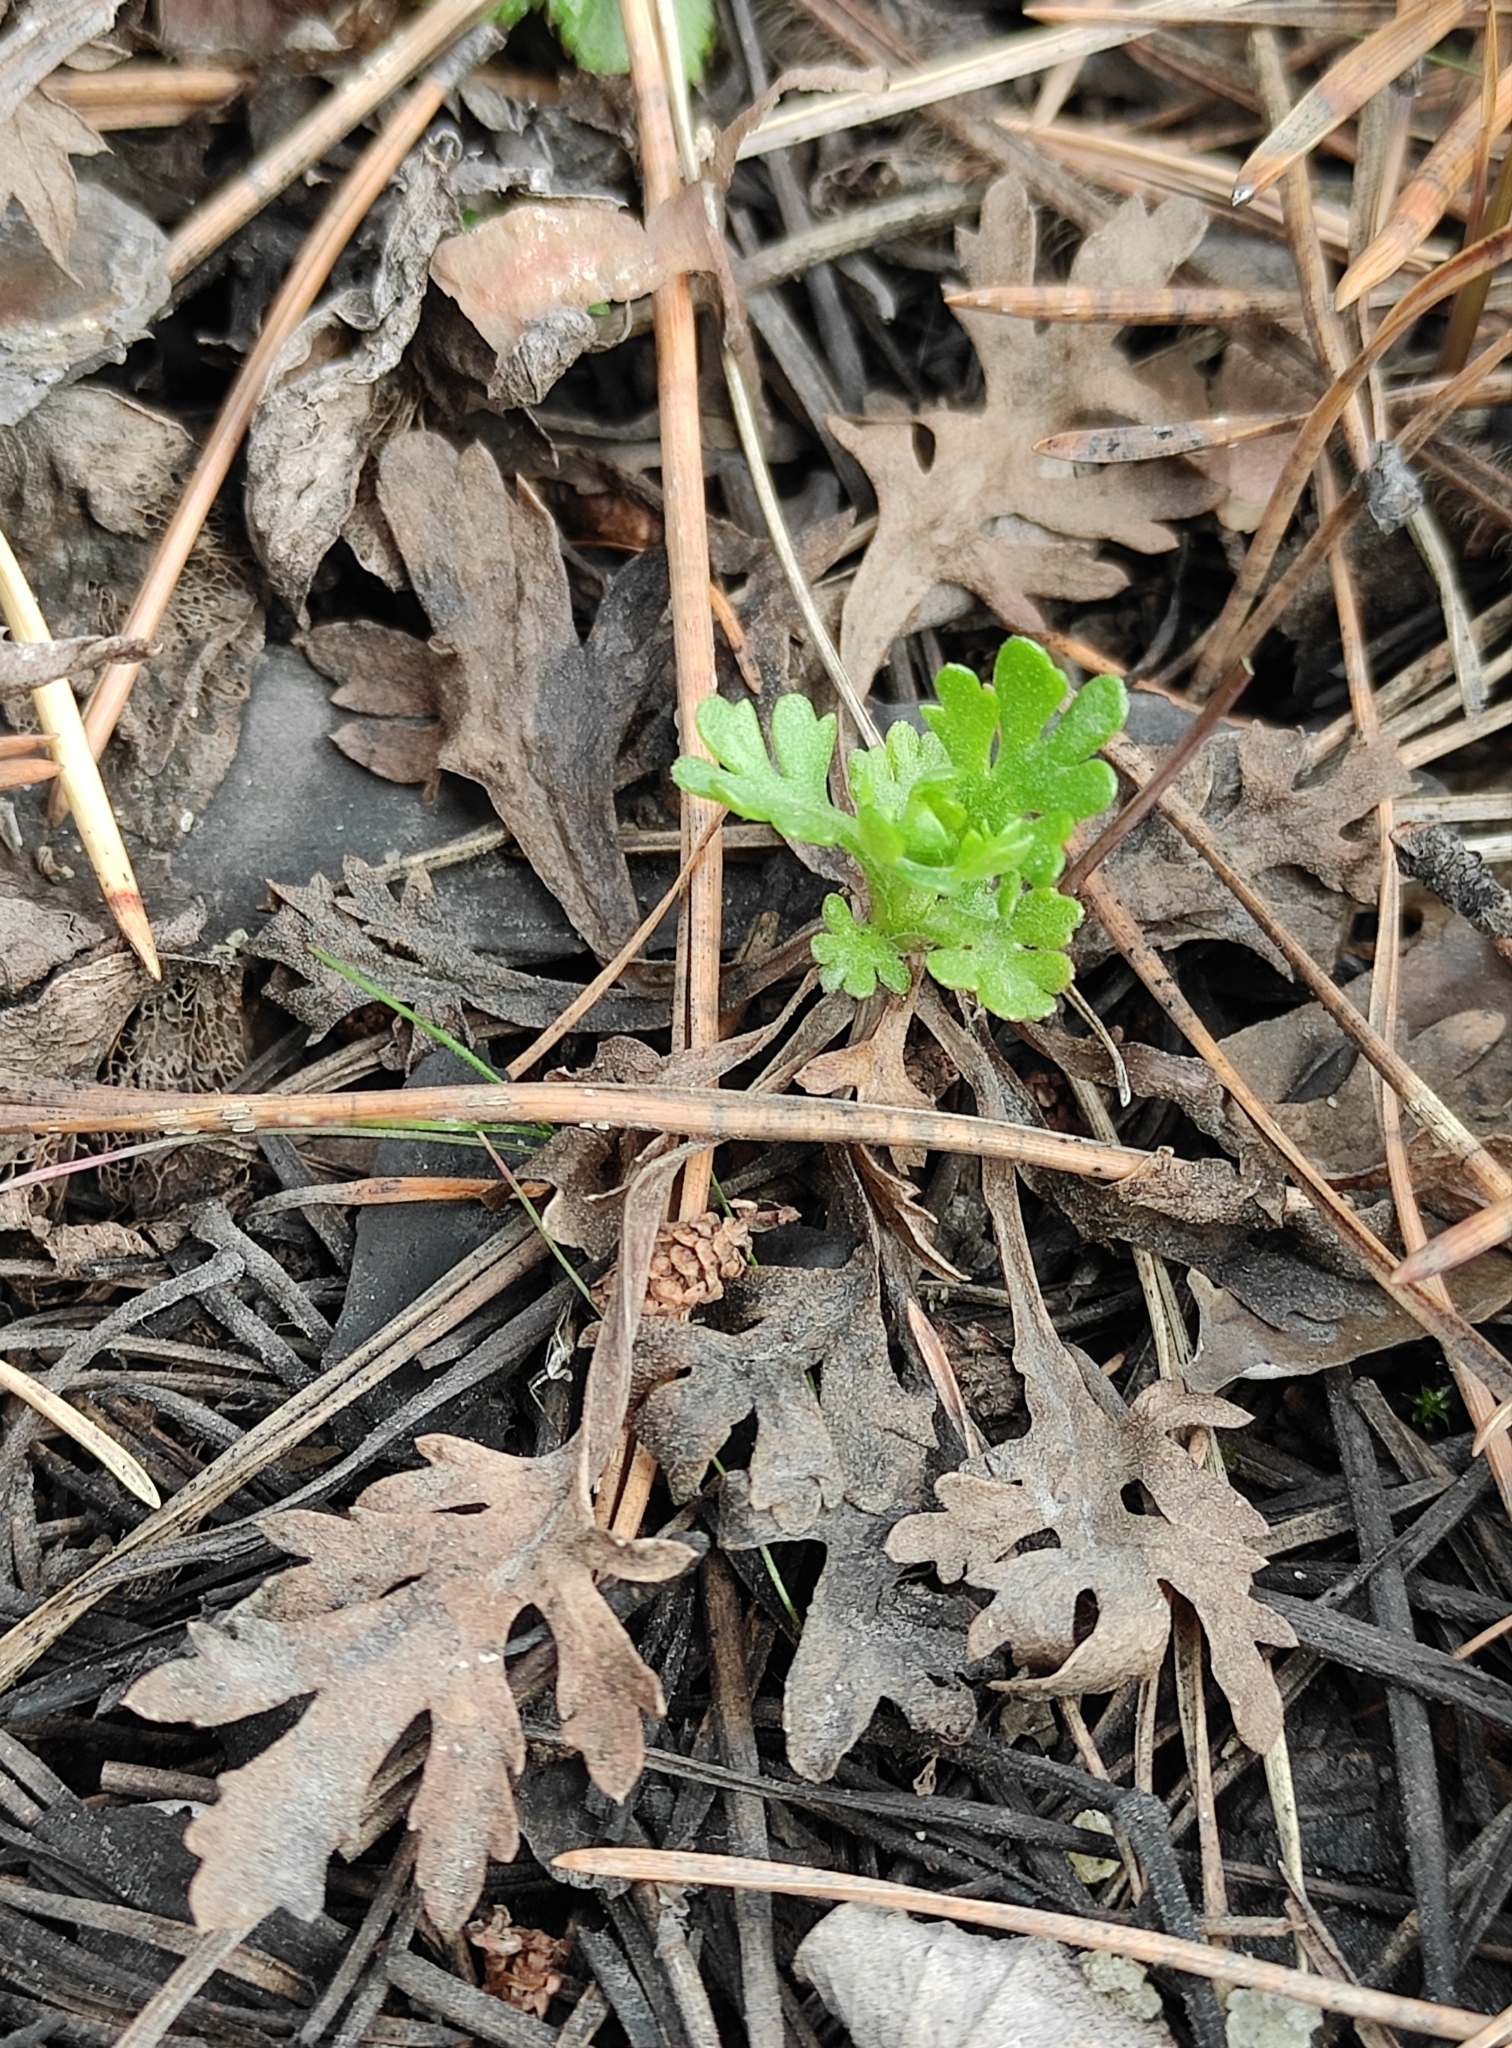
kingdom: Plantae
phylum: Tracheophyta
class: Magnoliopsida
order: Asterales
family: Asteraceae
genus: Chrysanthemum
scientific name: Chrysanthemum zawadzkii
